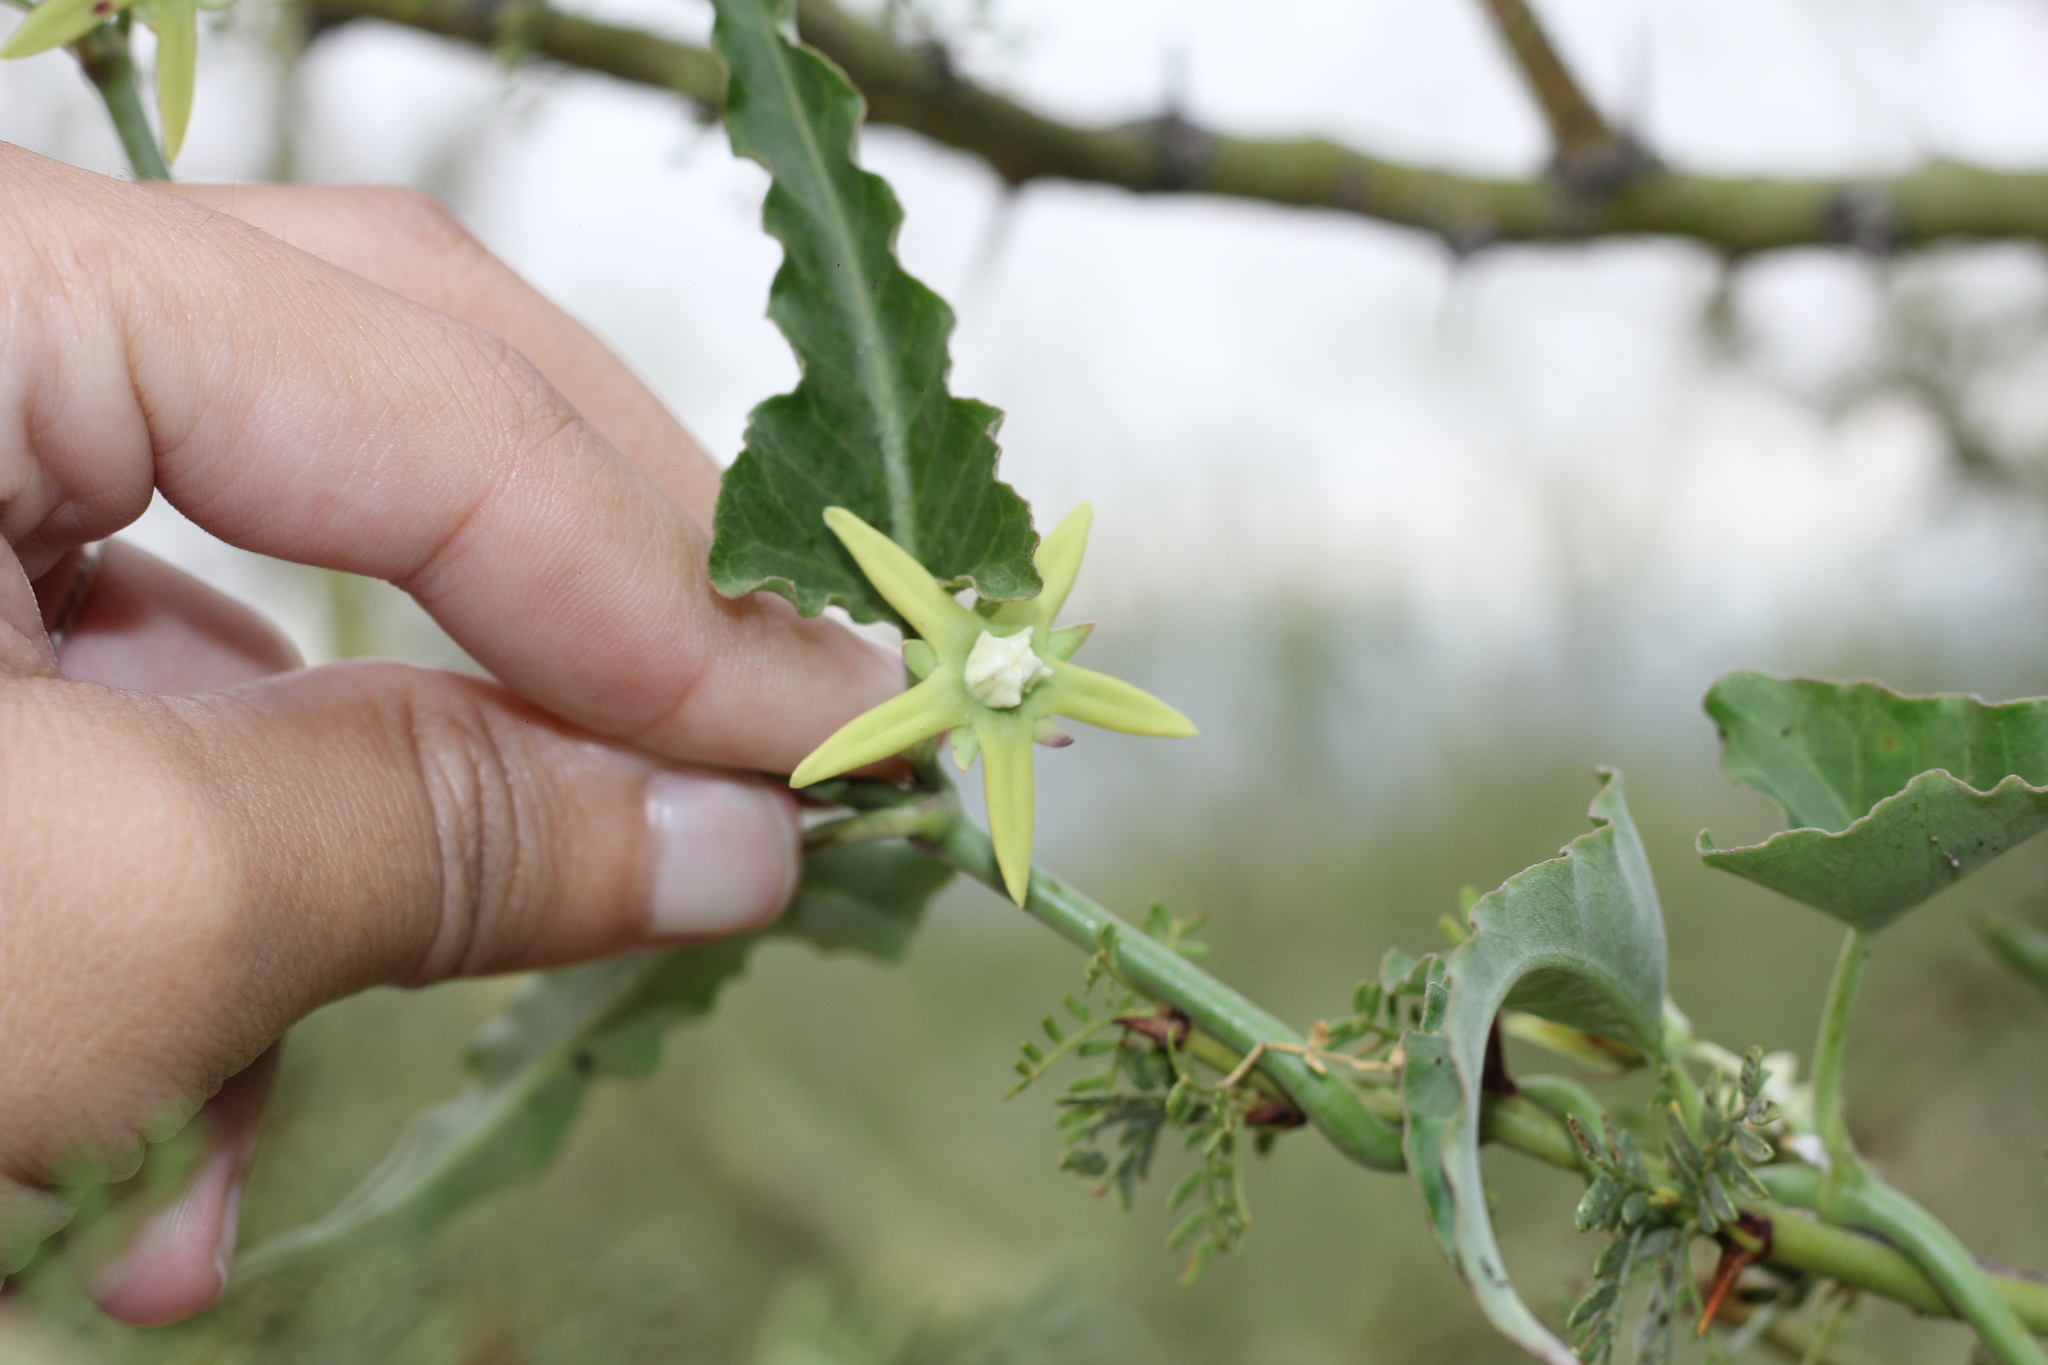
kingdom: Plantae
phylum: Tracheophyta
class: Magnoliopsida
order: Gentianales
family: Apocynaceae
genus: Araujia
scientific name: Araujia odorata
